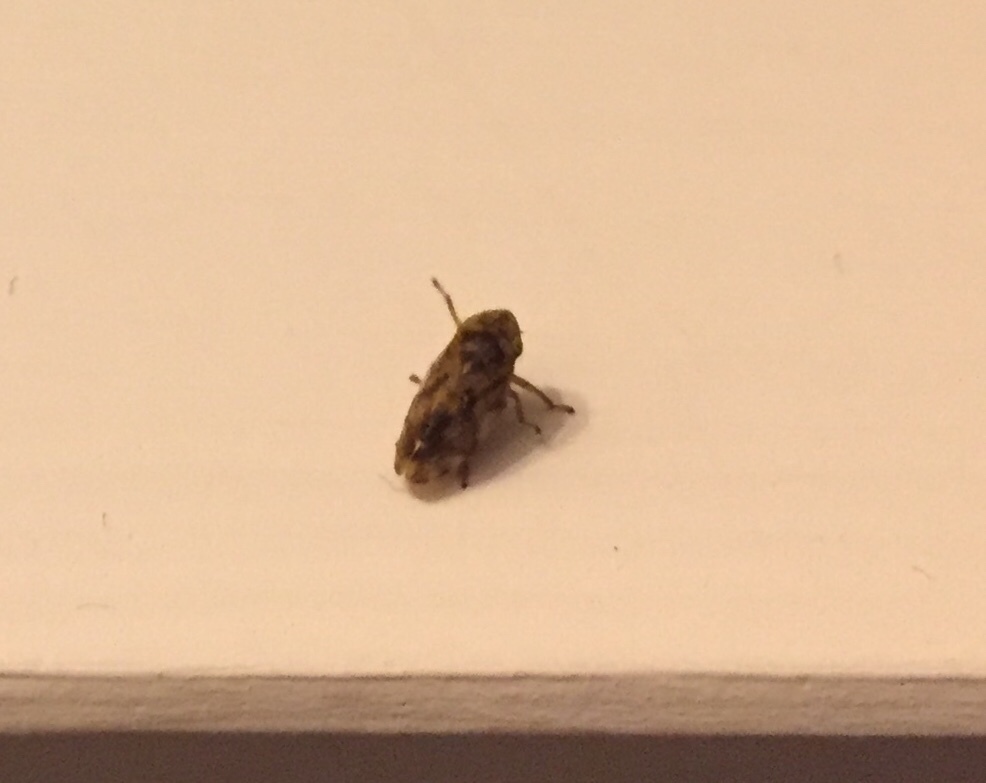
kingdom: Animalia
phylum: Arthropoda
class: Insecta
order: Hemiptera
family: Aphrophoridae
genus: Philaenus
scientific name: Philaenus spumarius
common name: Meadow spittlebug
